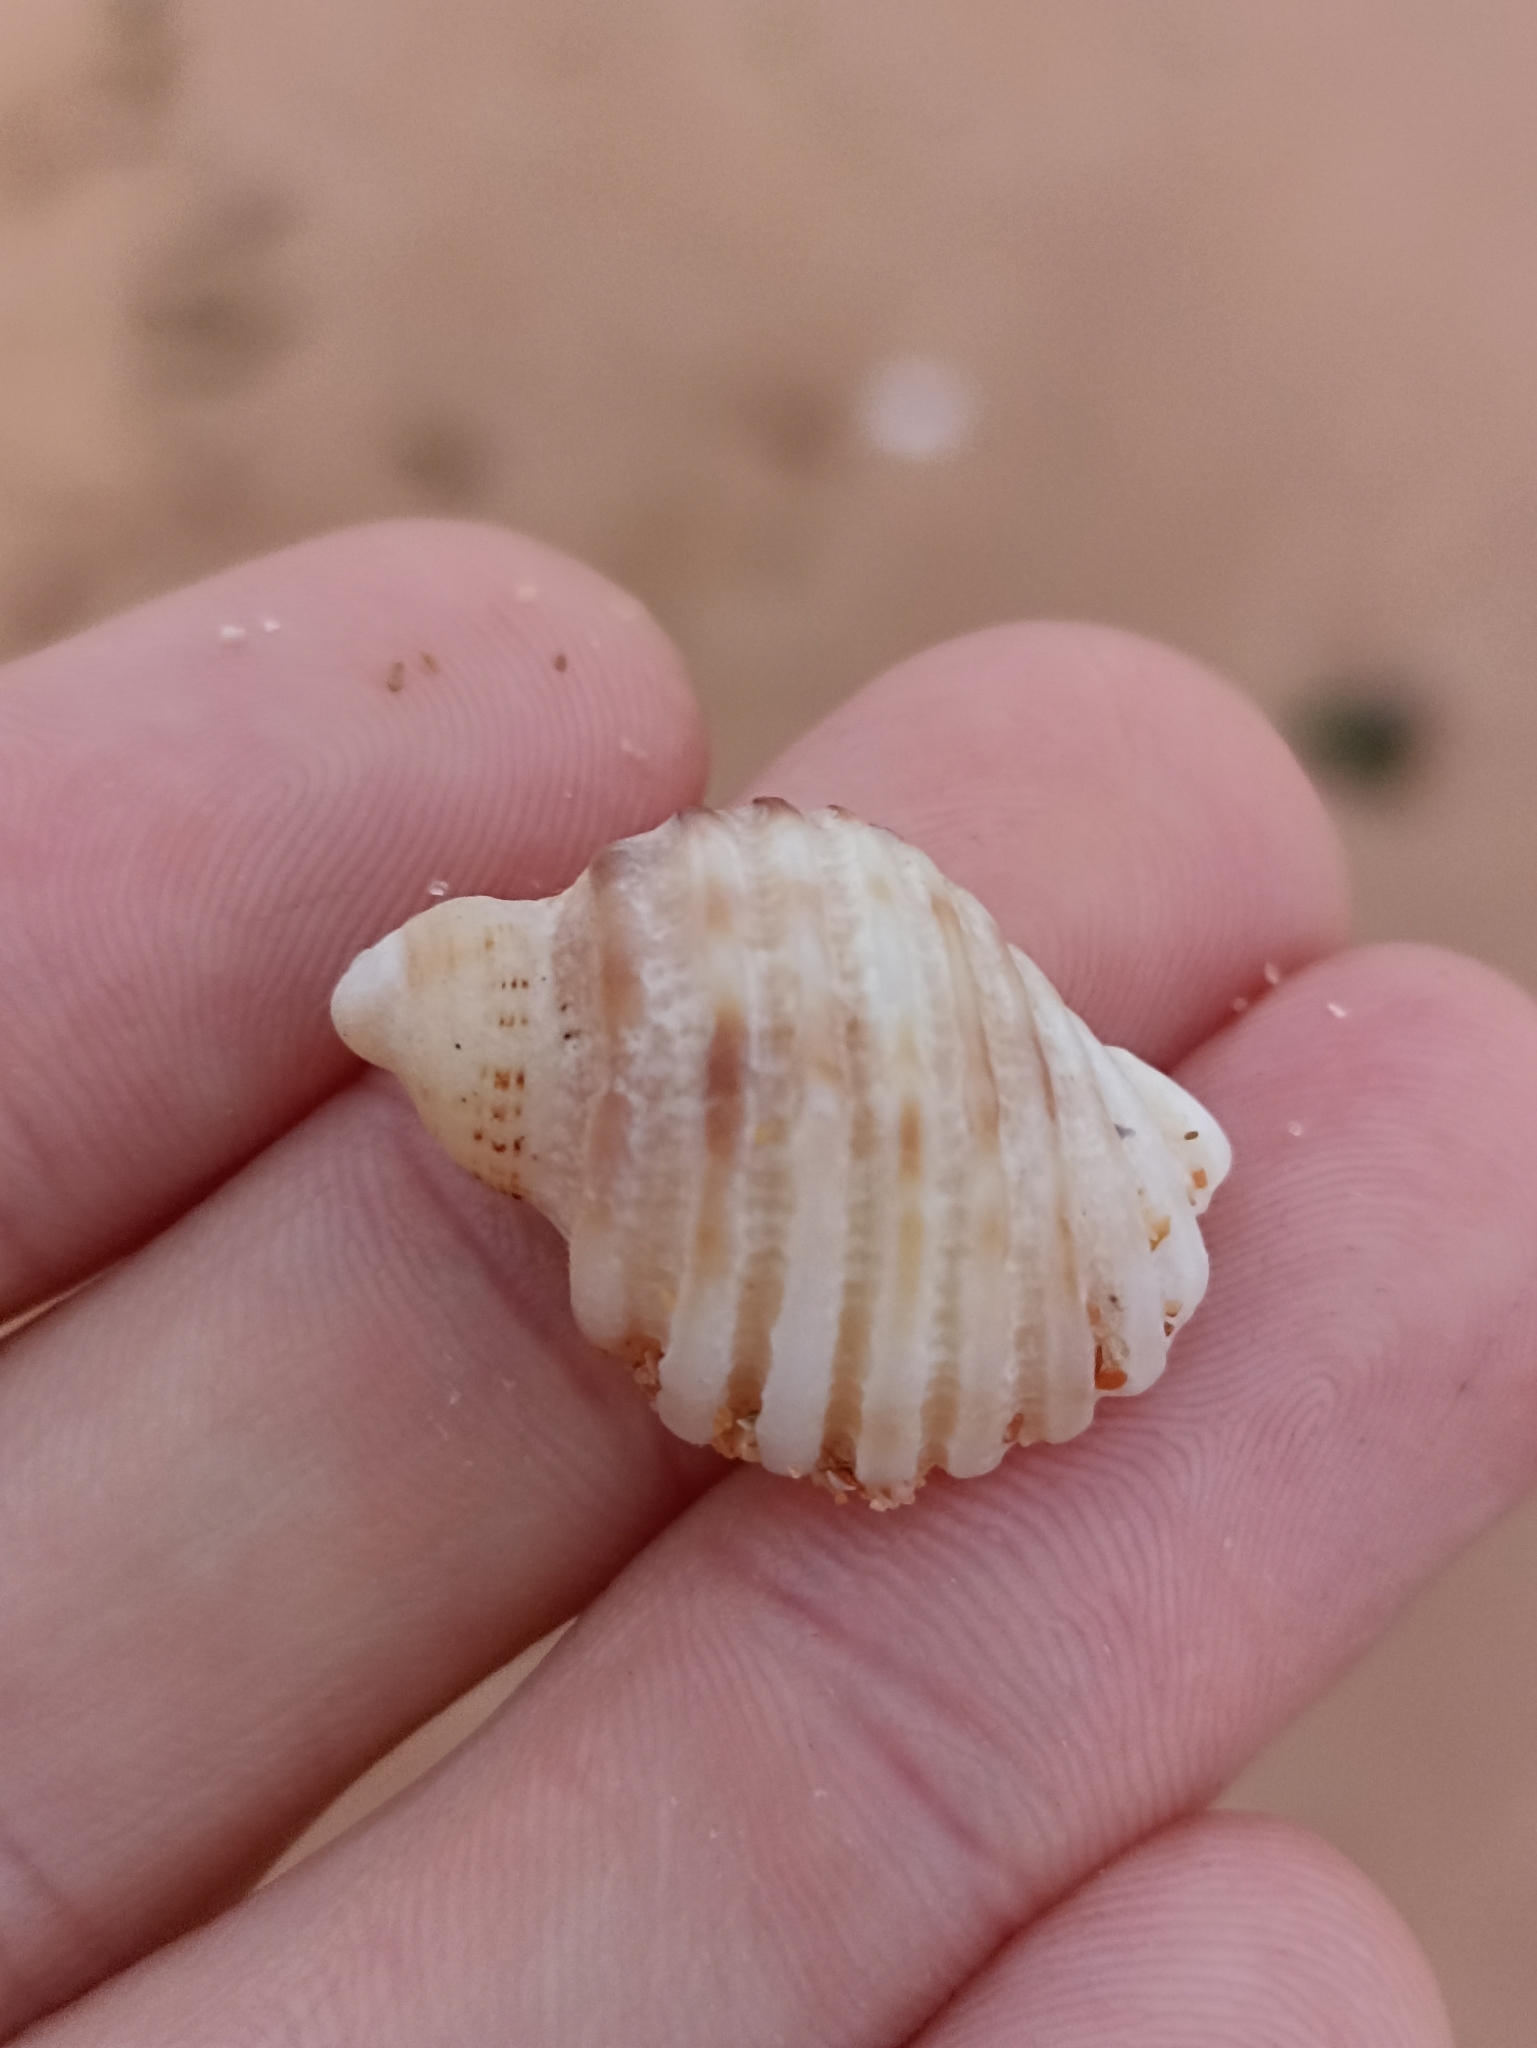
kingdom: Animalia
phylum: Mollusca
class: Gastropoda
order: Neogastropoda
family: Muricidae
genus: Dicathais
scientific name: Dicathais orbita
